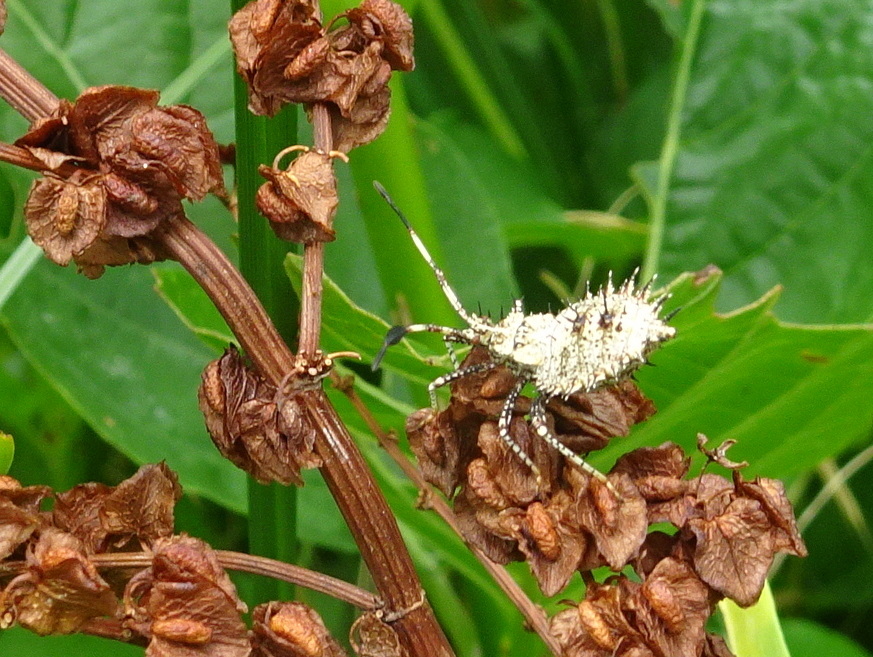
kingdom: Animalia
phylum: Arthropoda
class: Insecta
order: Hemiptera
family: Coreidae
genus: Euthochtha
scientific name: Euthochtha galeator
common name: Helmeted squash bug
